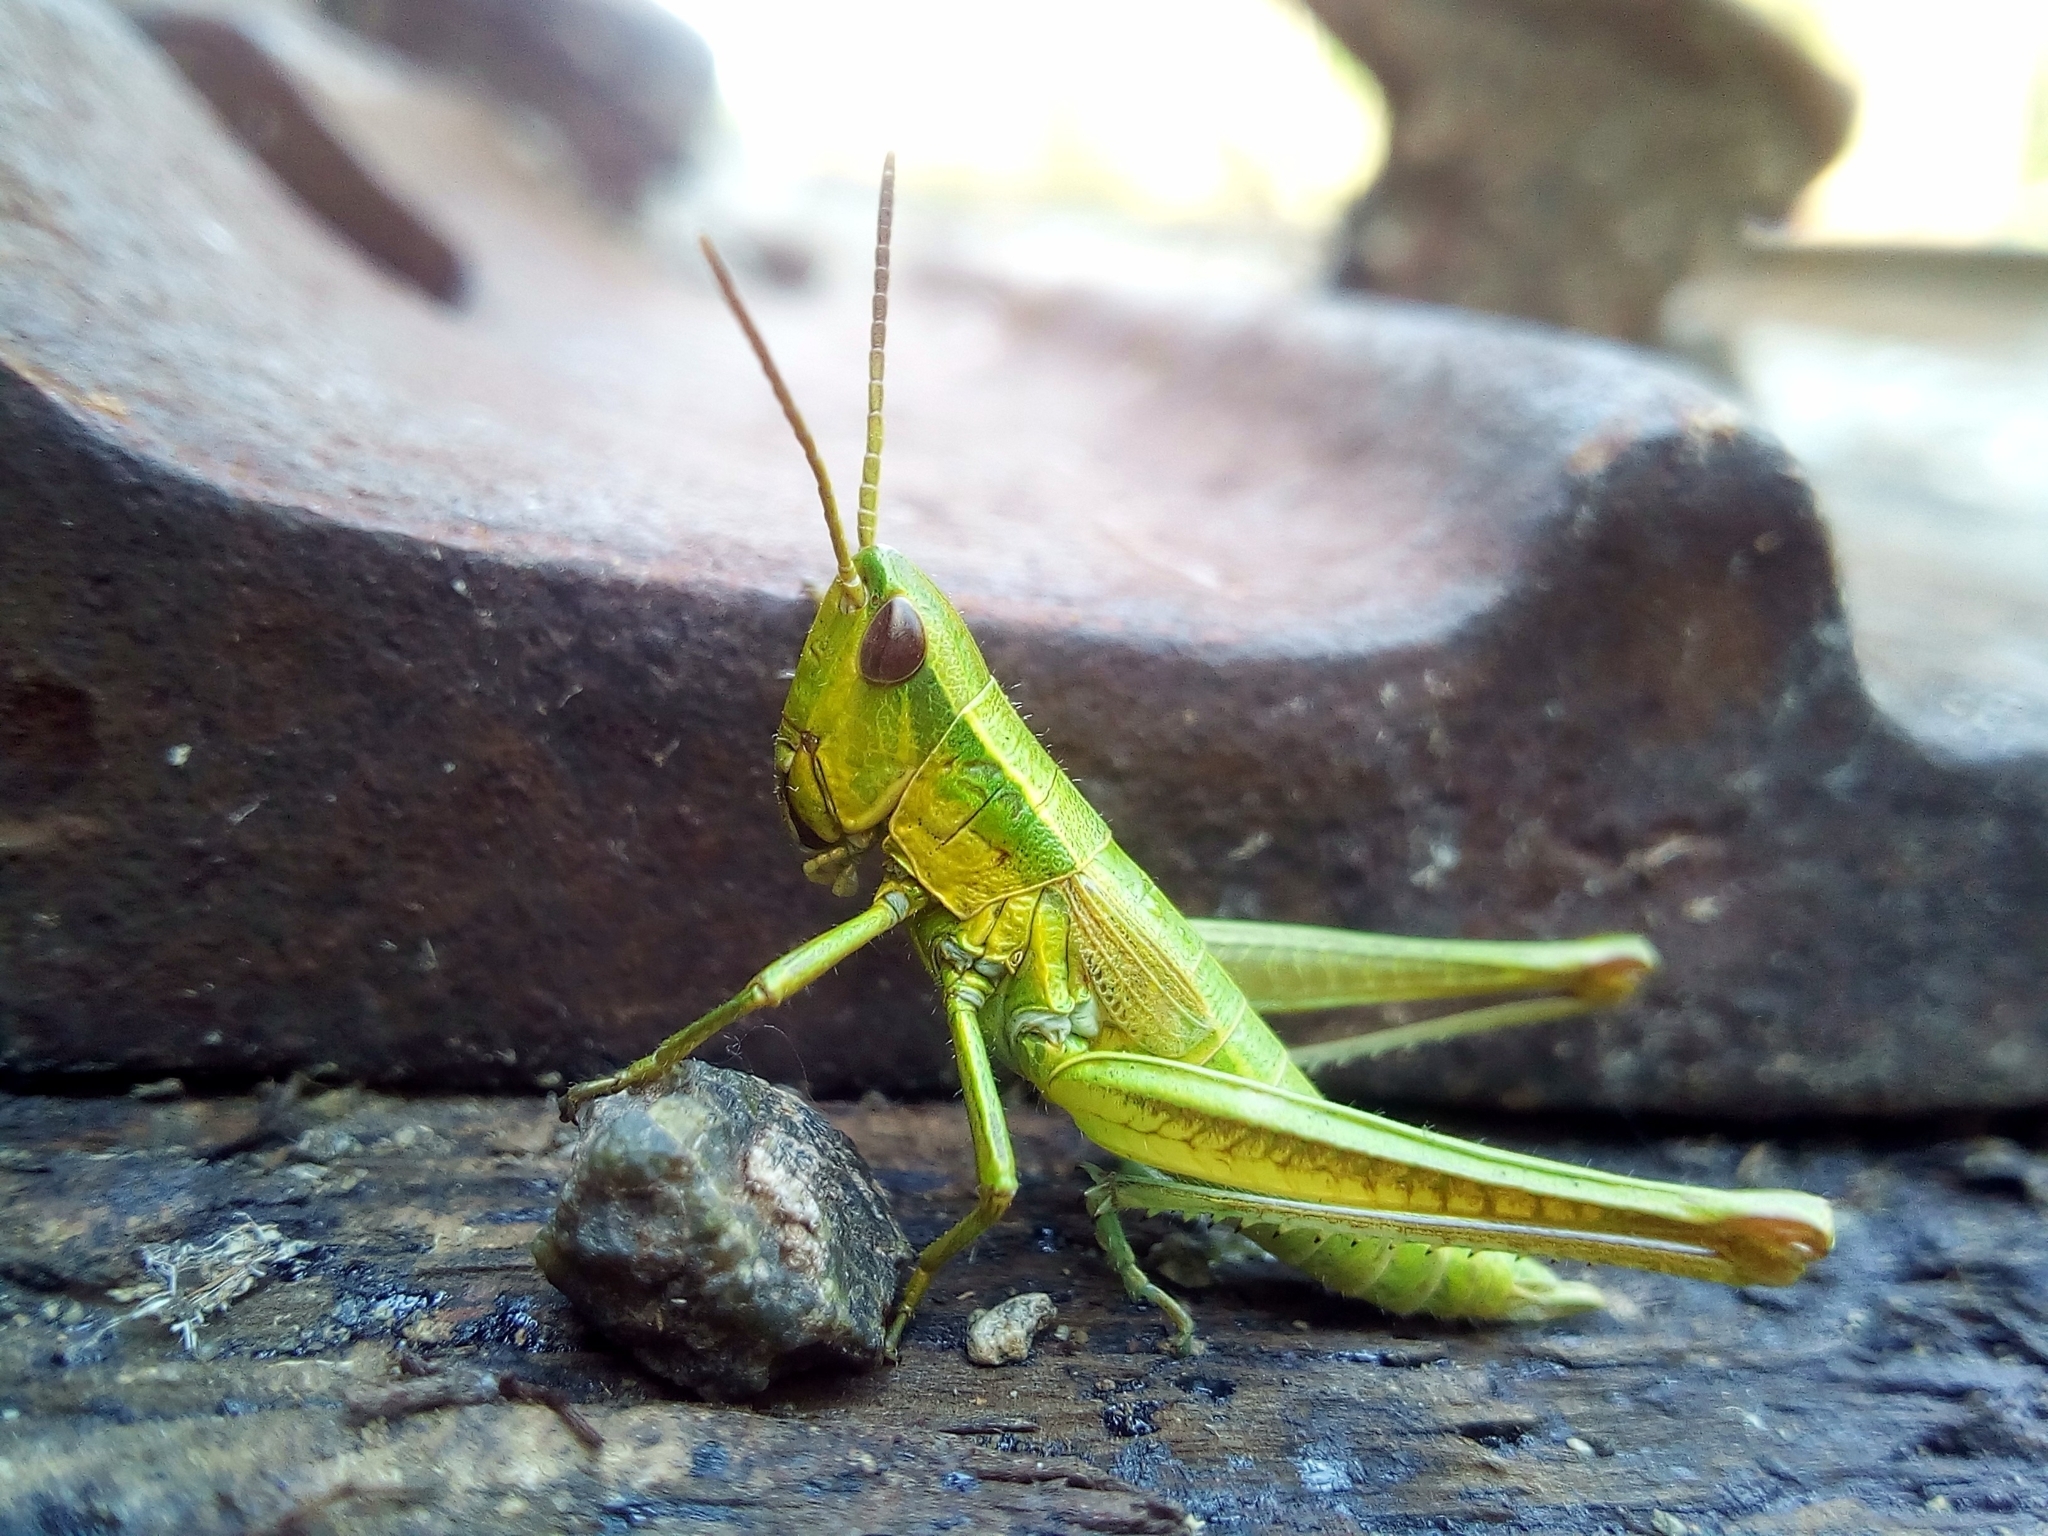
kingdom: Animalia
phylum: Arthropoda
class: Insecta
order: Orthoptera
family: Acrididae
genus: Euthystira
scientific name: Euthystira brachyptera
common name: Small gold grasshopper
